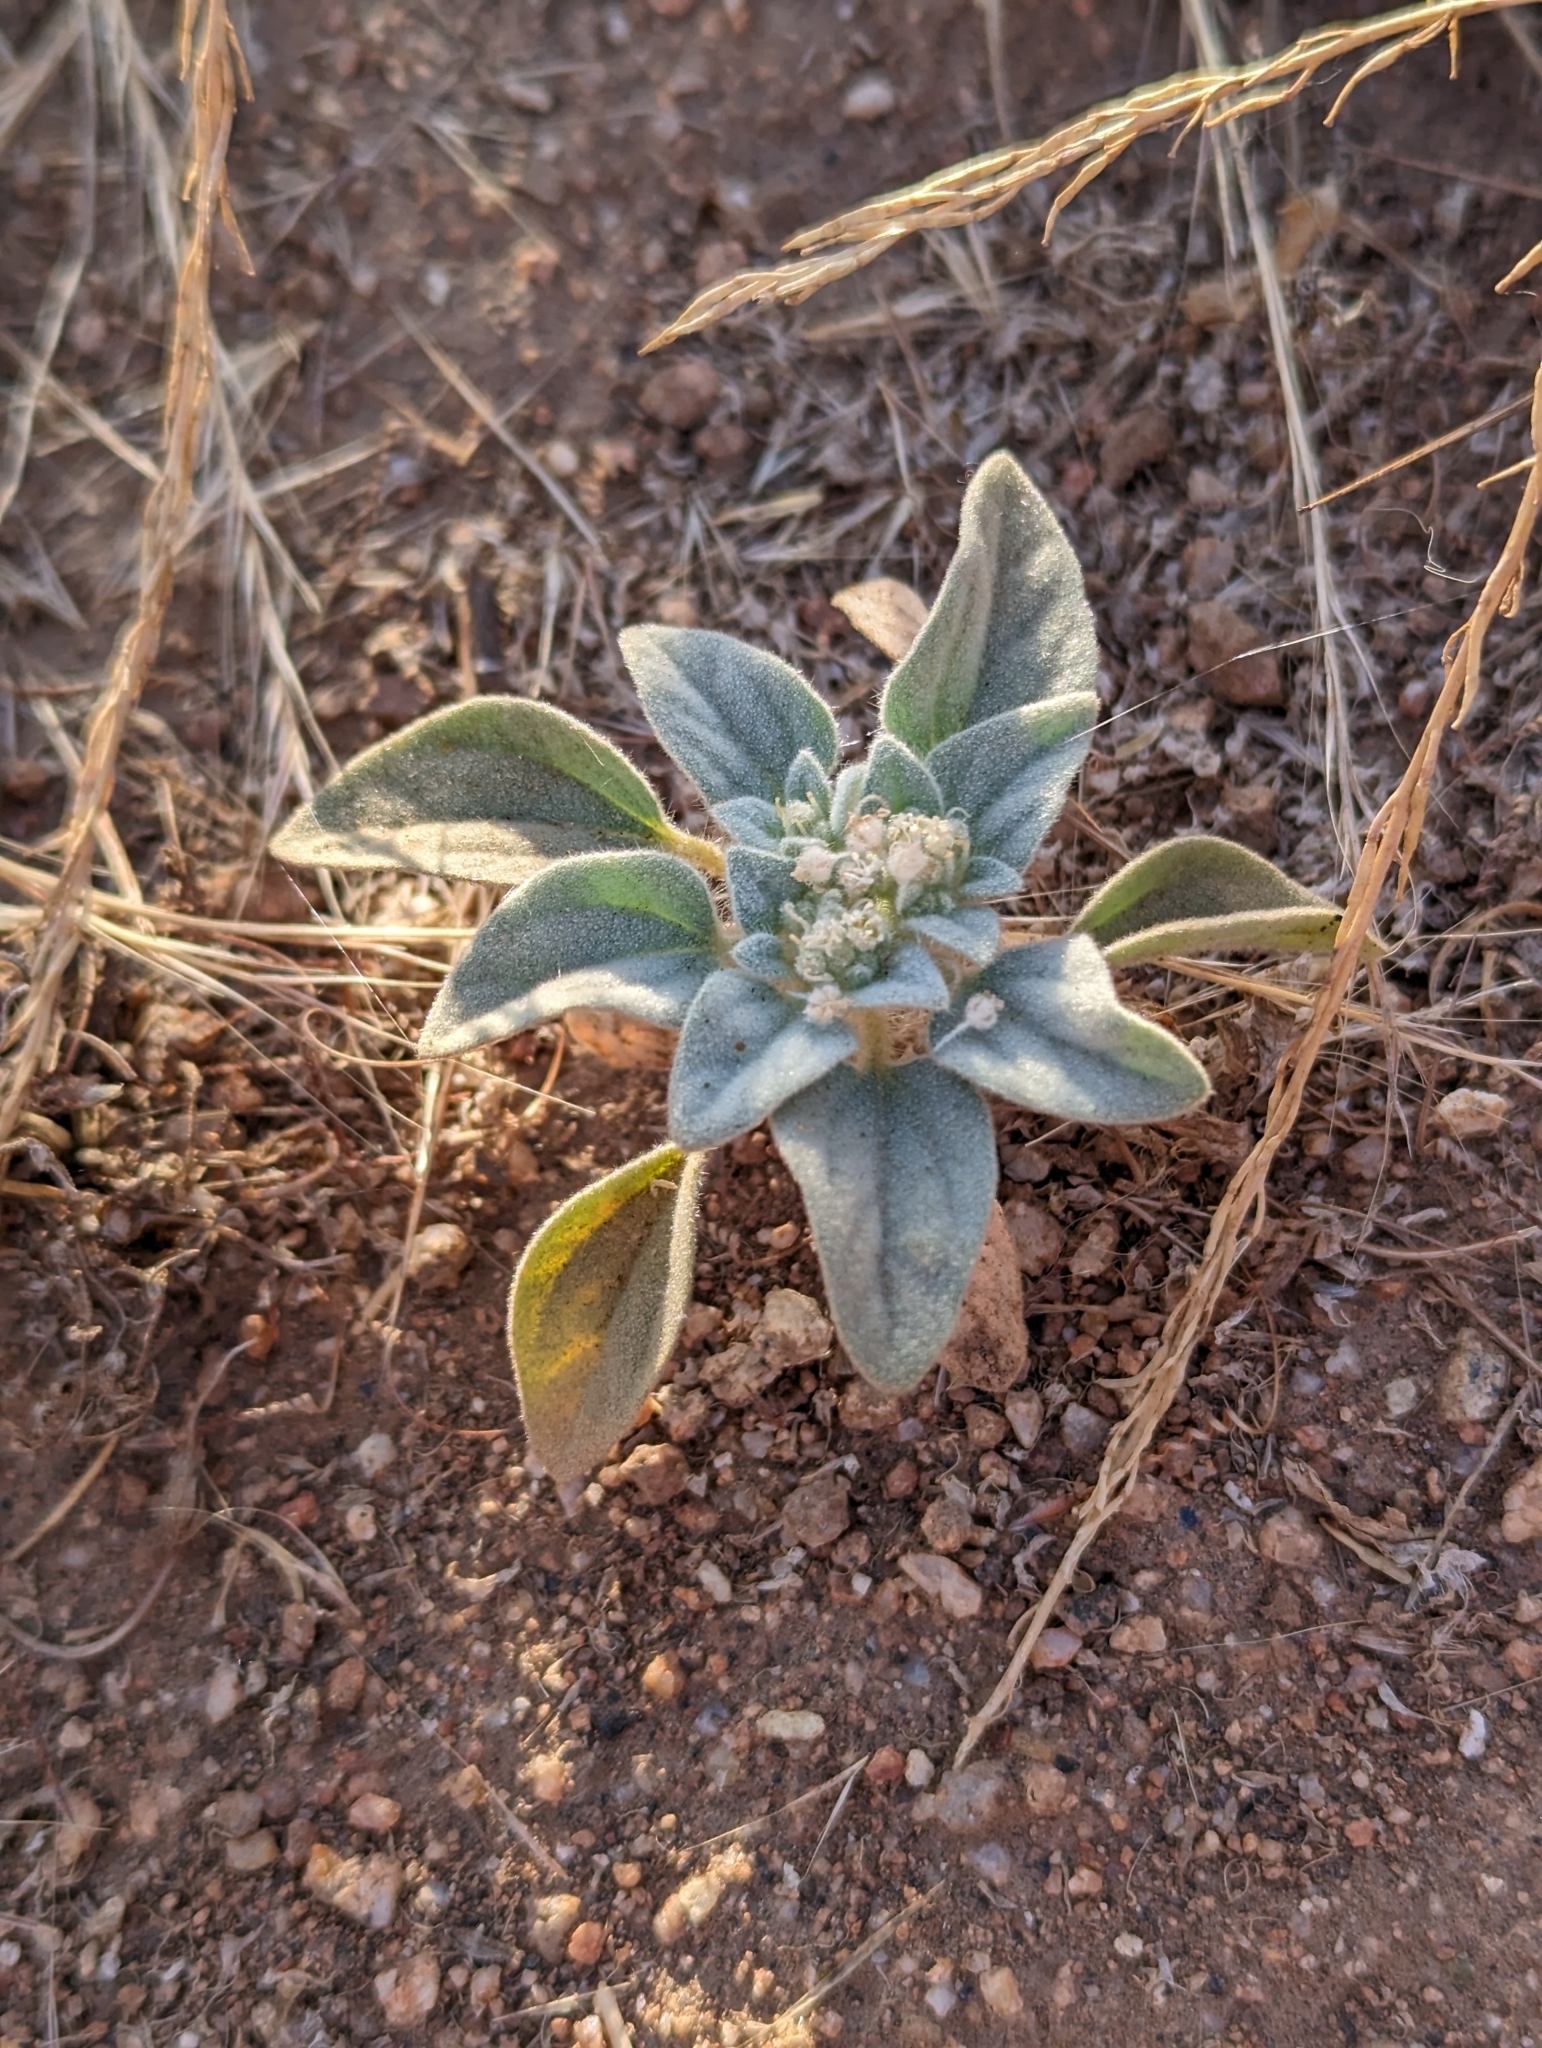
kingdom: Plantae
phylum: Tracheophyta
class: Magnoliopsida
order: Malpighiales
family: Euphorbiaceae
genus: Croton
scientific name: Croton setiger
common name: Dove weed
